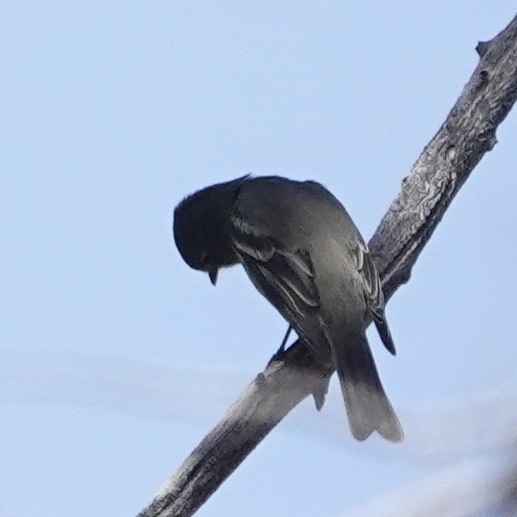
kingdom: Animalia
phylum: Chordata
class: Aves
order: Passeriformes
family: Tyrannidae
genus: Empidonax
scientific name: Empidonax hammondii
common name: Hammond's flycatcher
